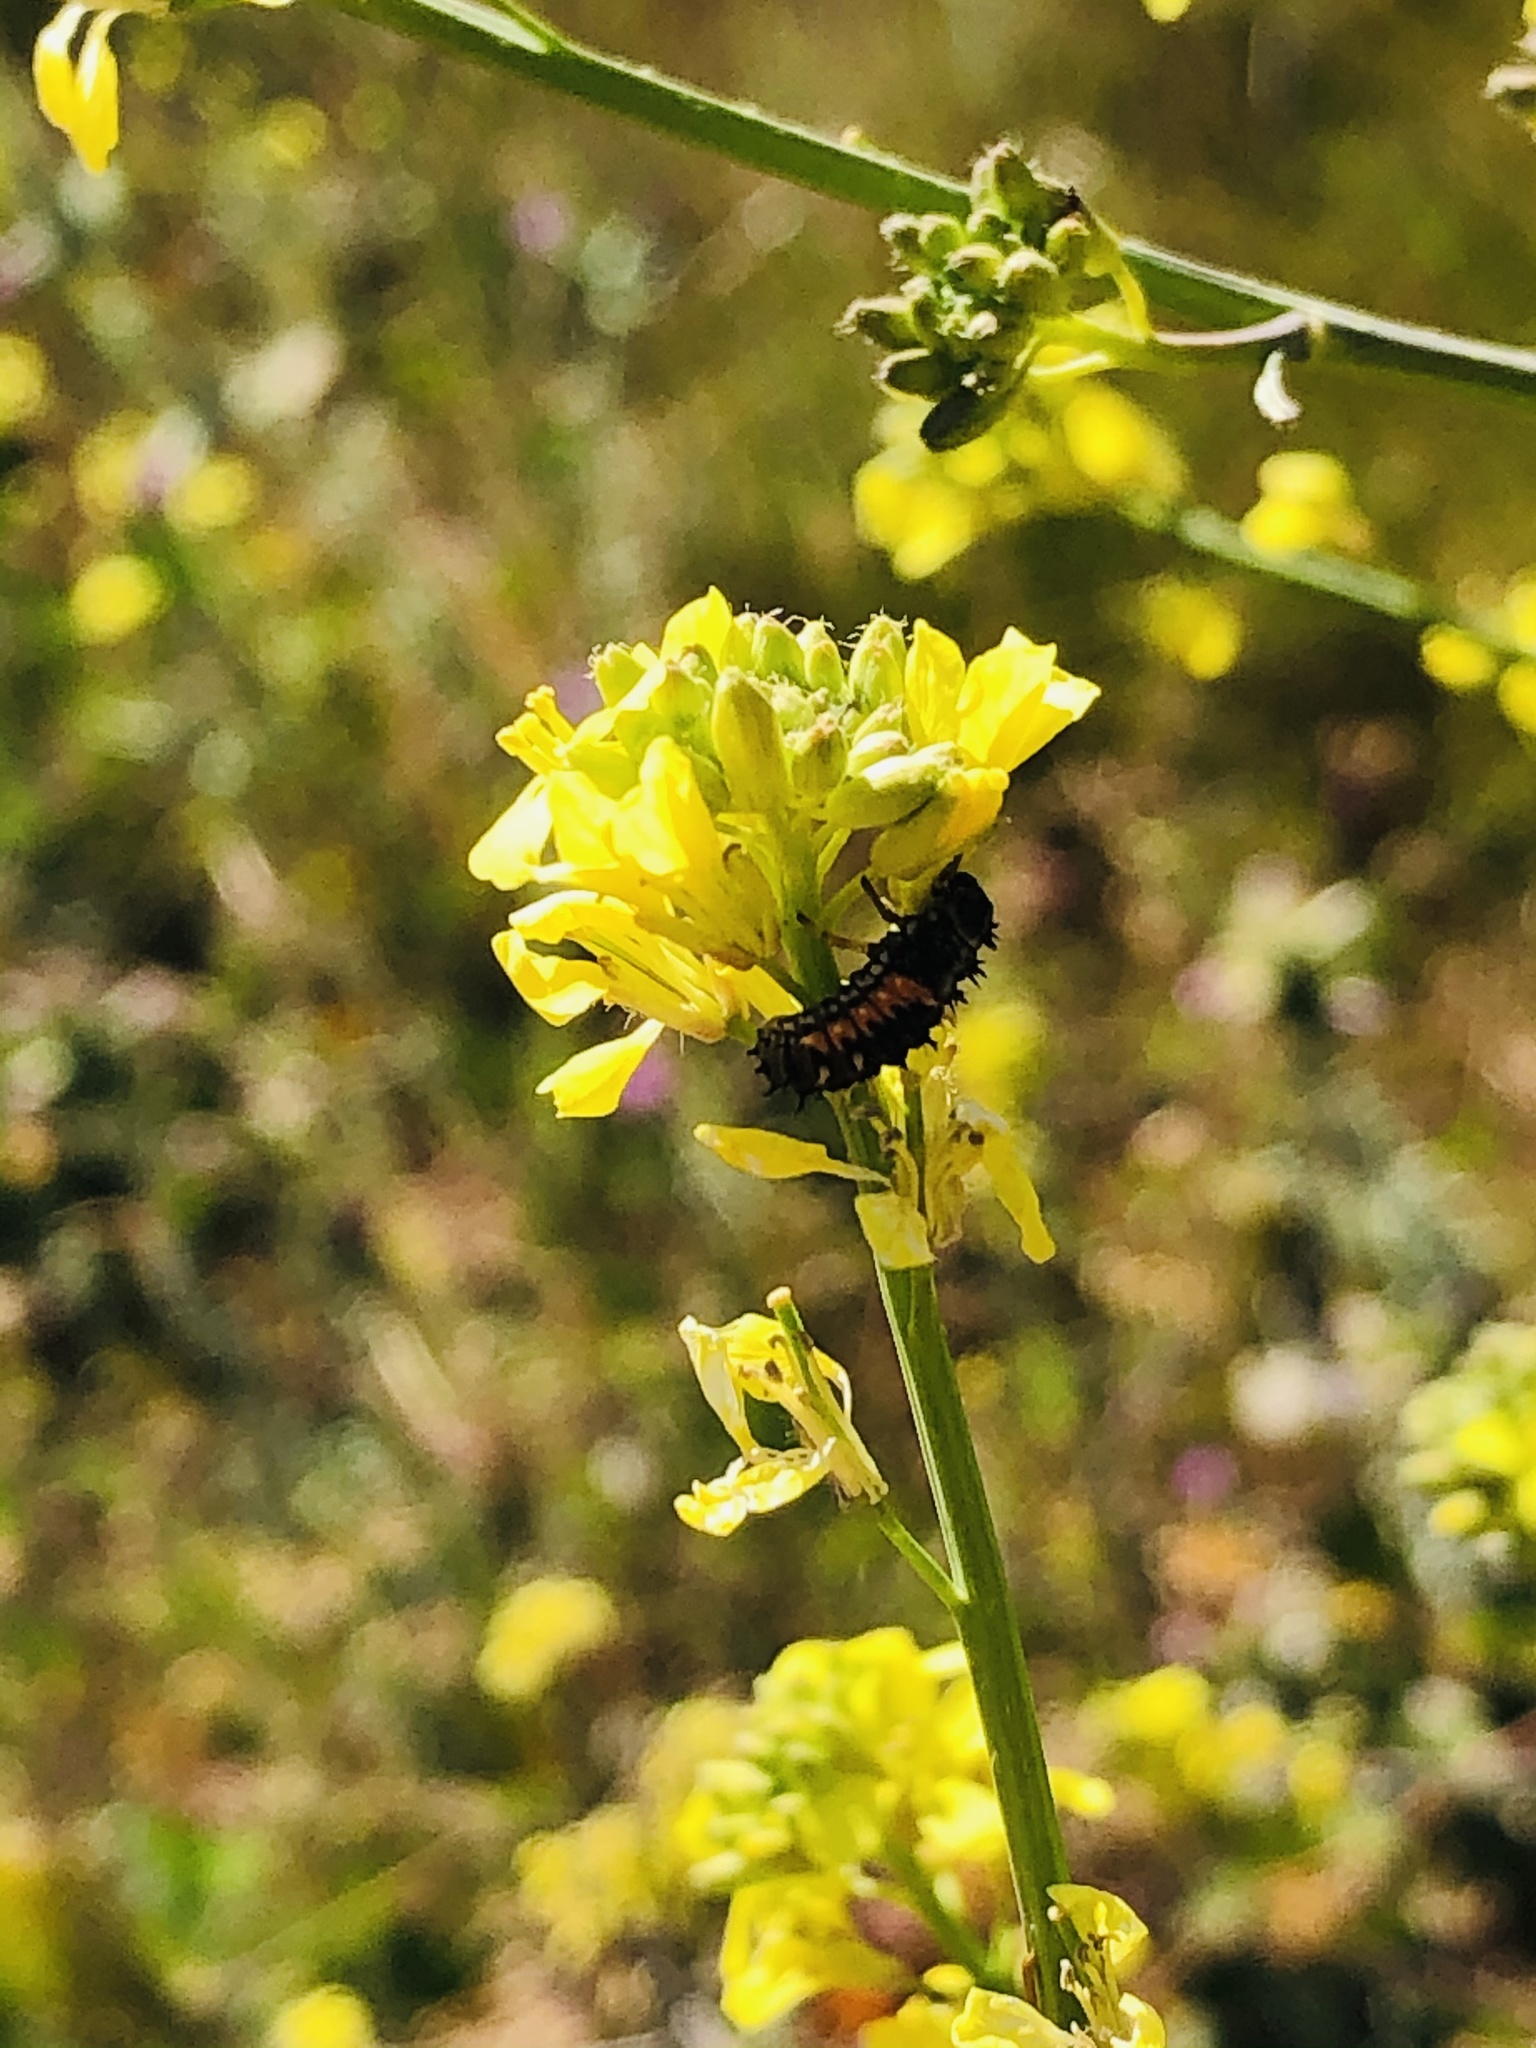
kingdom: Animalia
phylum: Arthropoda
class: Insecta
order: Coleoptera
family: Coccinellidae
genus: Harmonia
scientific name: Harmonia axyridis
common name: Harlequin ladybird
